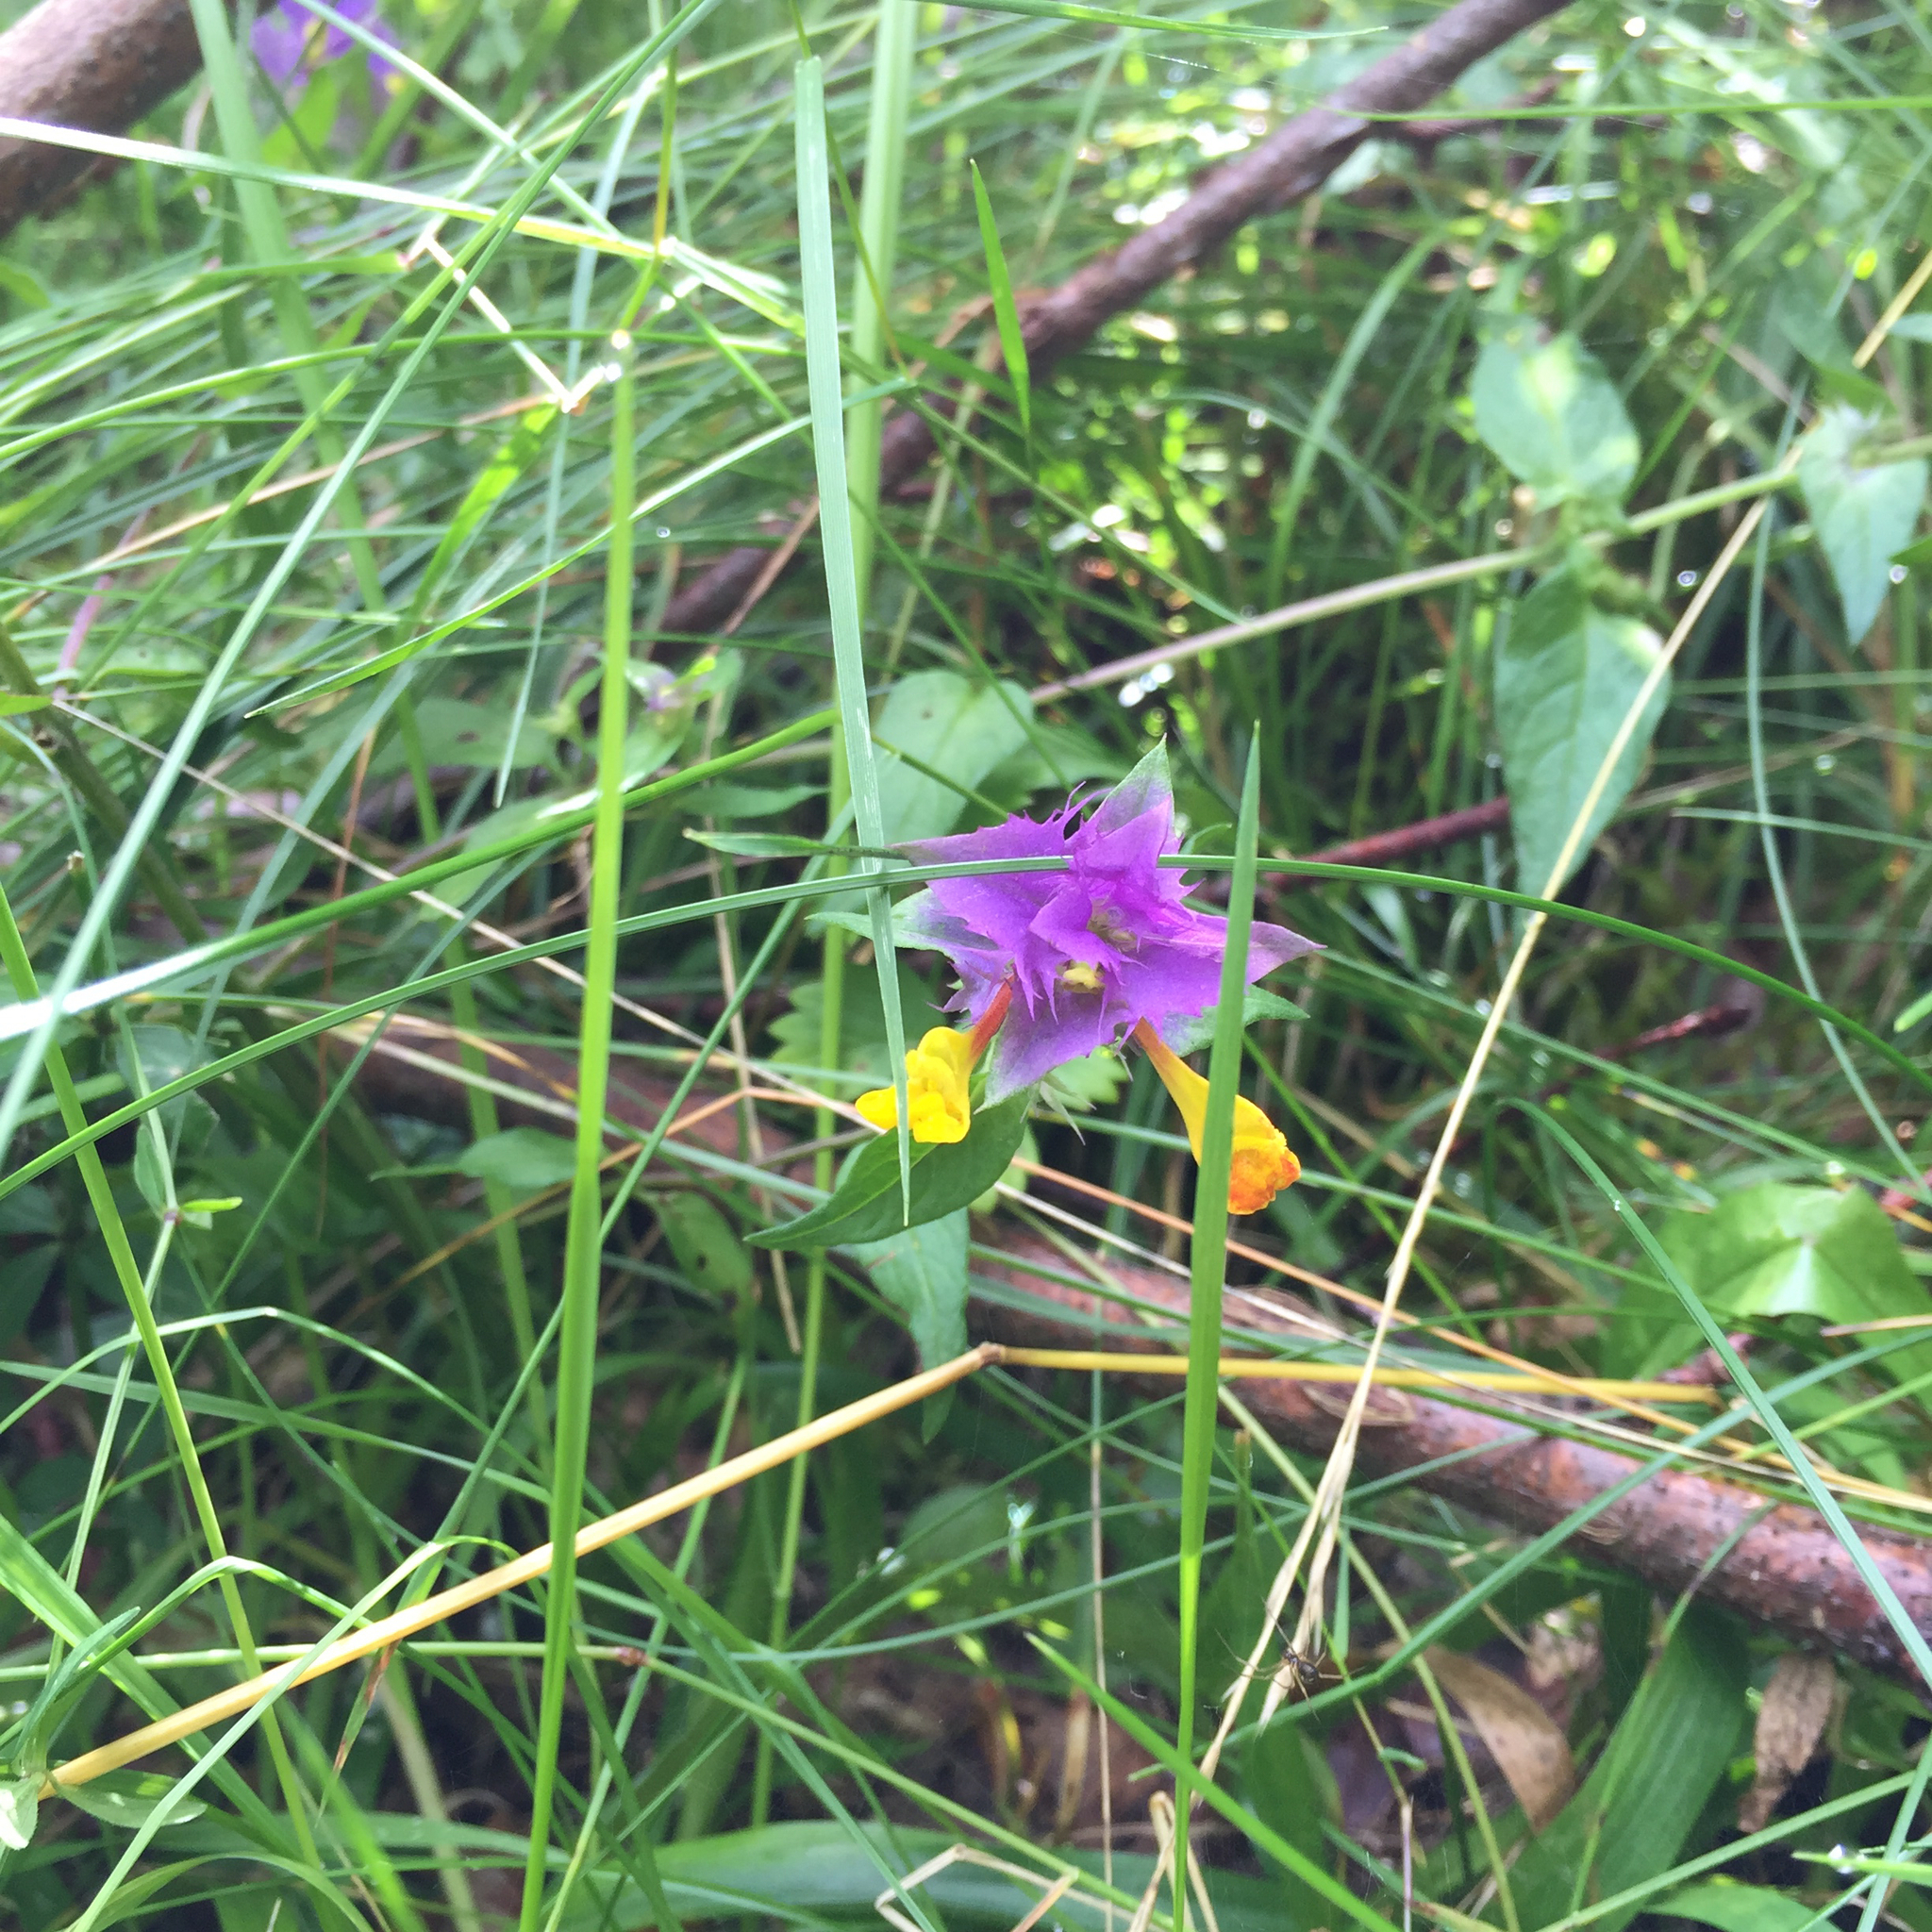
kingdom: Plantae
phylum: Tracheophyta
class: Magnoliopsida
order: Lamiales
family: Orobanchaceae
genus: Melampyrum
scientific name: Melampyrum bihariense
